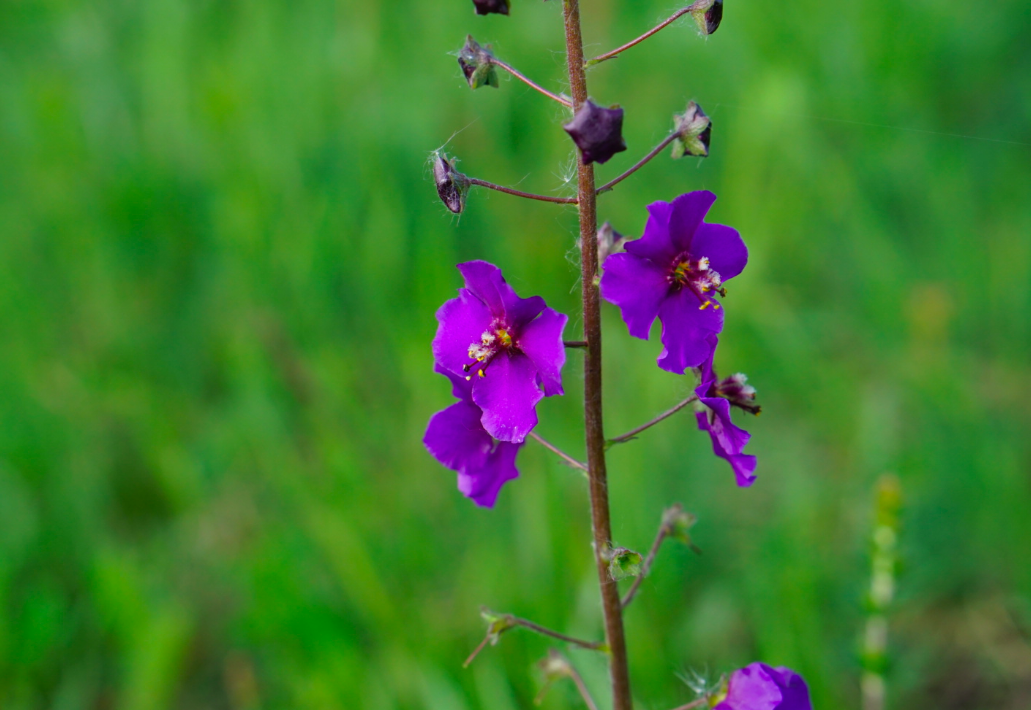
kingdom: Plantae
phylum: Tracheophyta
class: Magnoliopsida
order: Lamiales
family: Scrophulariaceae
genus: Verbascum
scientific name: Verbascum phoeniceum
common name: Purple mullein
